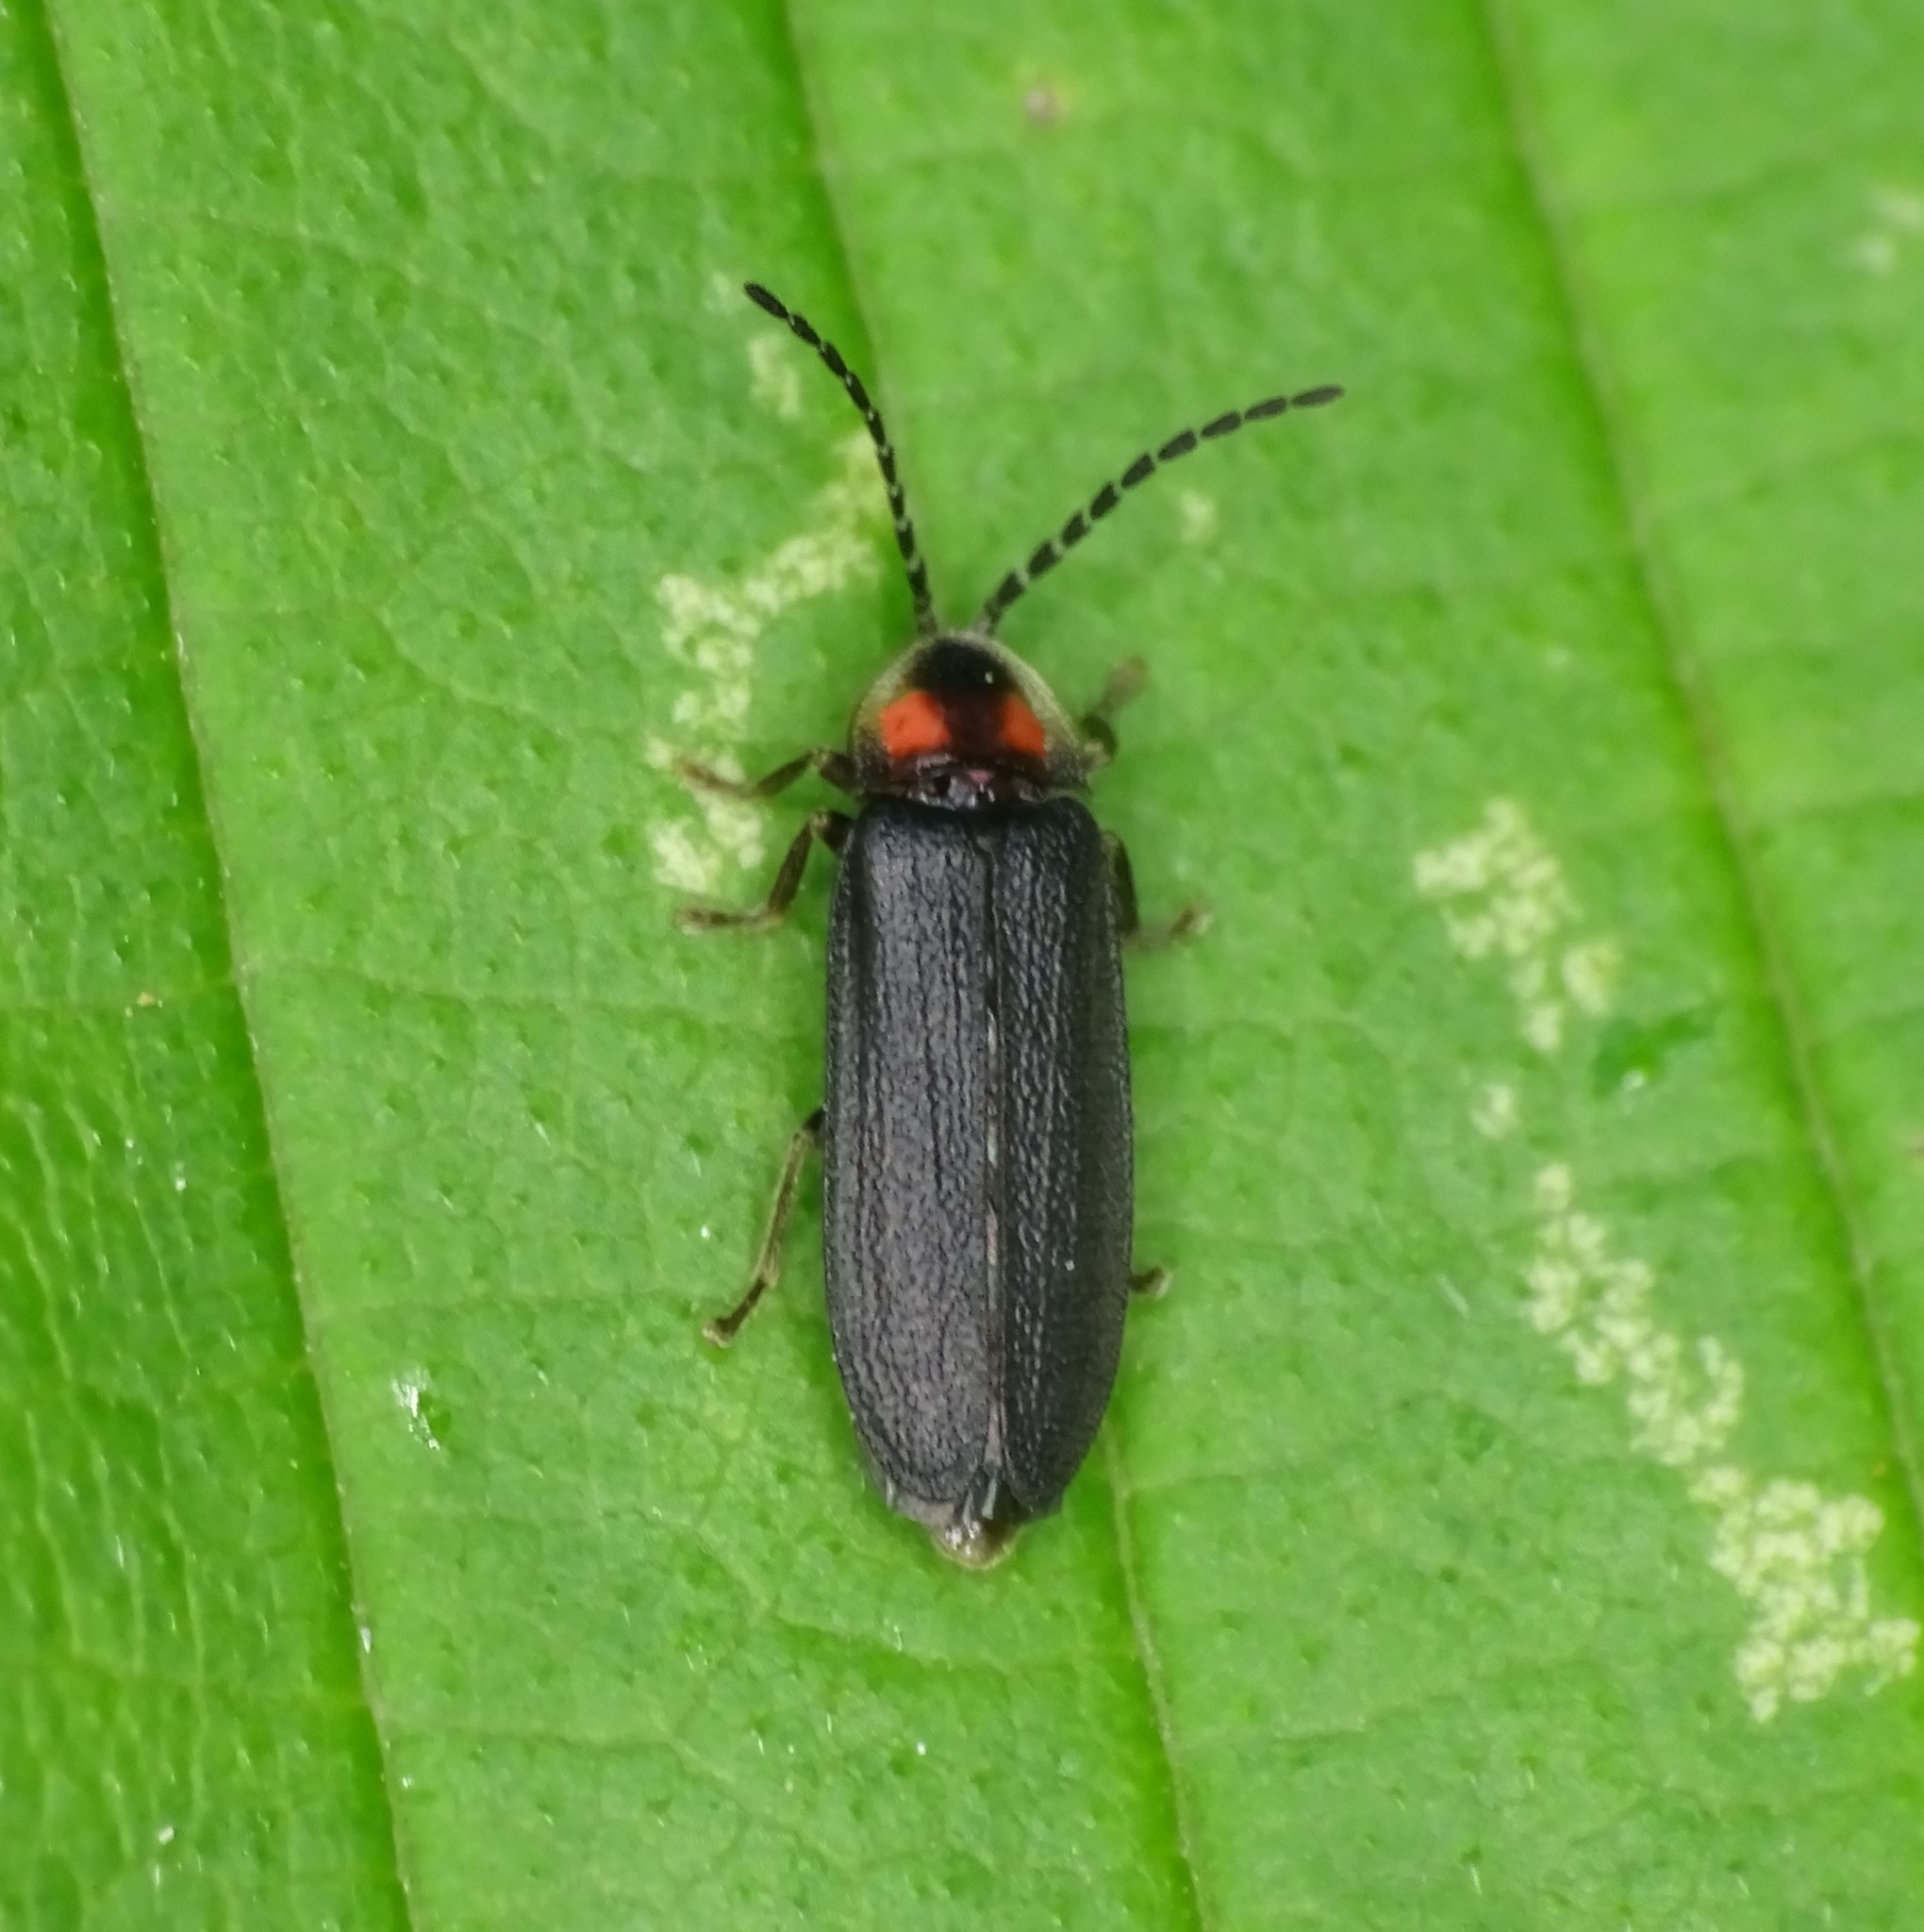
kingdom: Animalia
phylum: Arthropoda
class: Insecta
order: Coleoptera
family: Lampyridae
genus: Lucidota
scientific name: Lucidota punctata
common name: Dotted firefly
